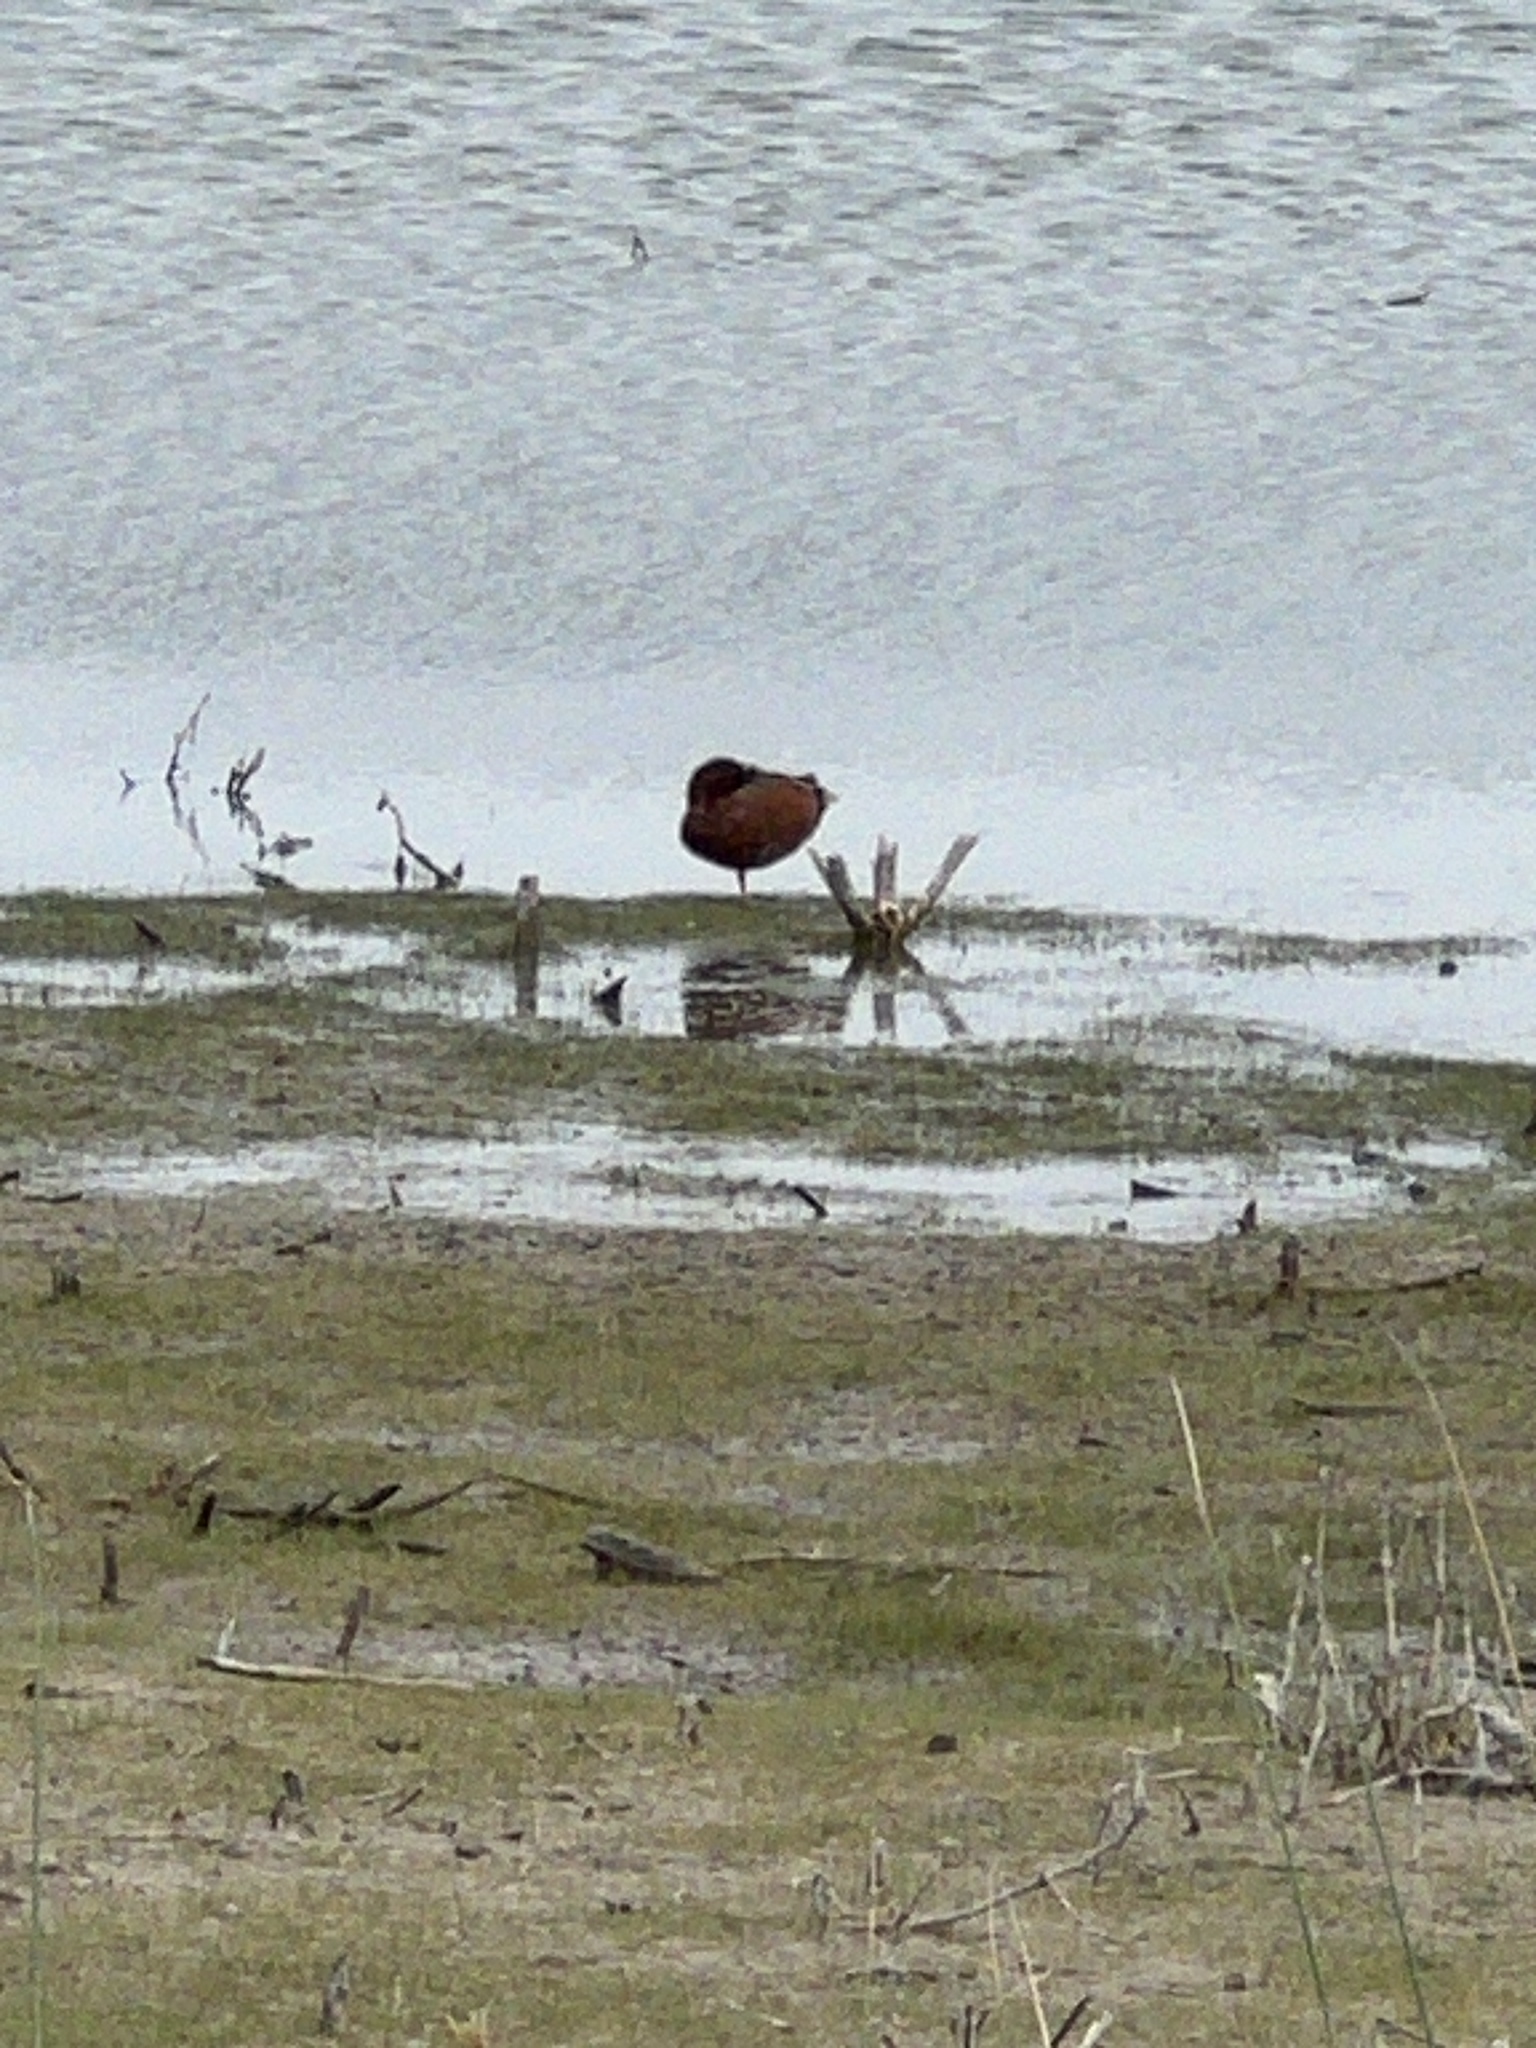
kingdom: Animalia
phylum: Chordata
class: Aves
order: Anseriformes
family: Anatidae
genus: Spatula
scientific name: Spatula cyanoptera
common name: Cinnamon teal
